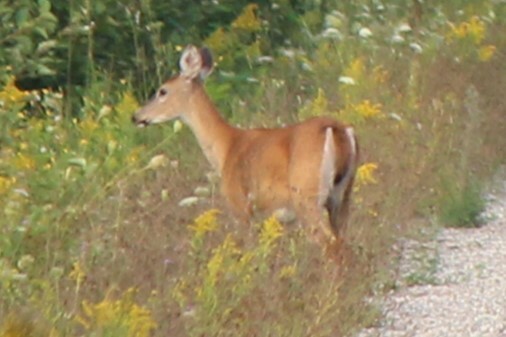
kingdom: Animalia
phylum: Chordata
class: Mammalia
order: Artiodactyla
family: Cervidae
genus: Odocoileus
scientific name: Odocoileus virginianus
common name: White-tailed deer
